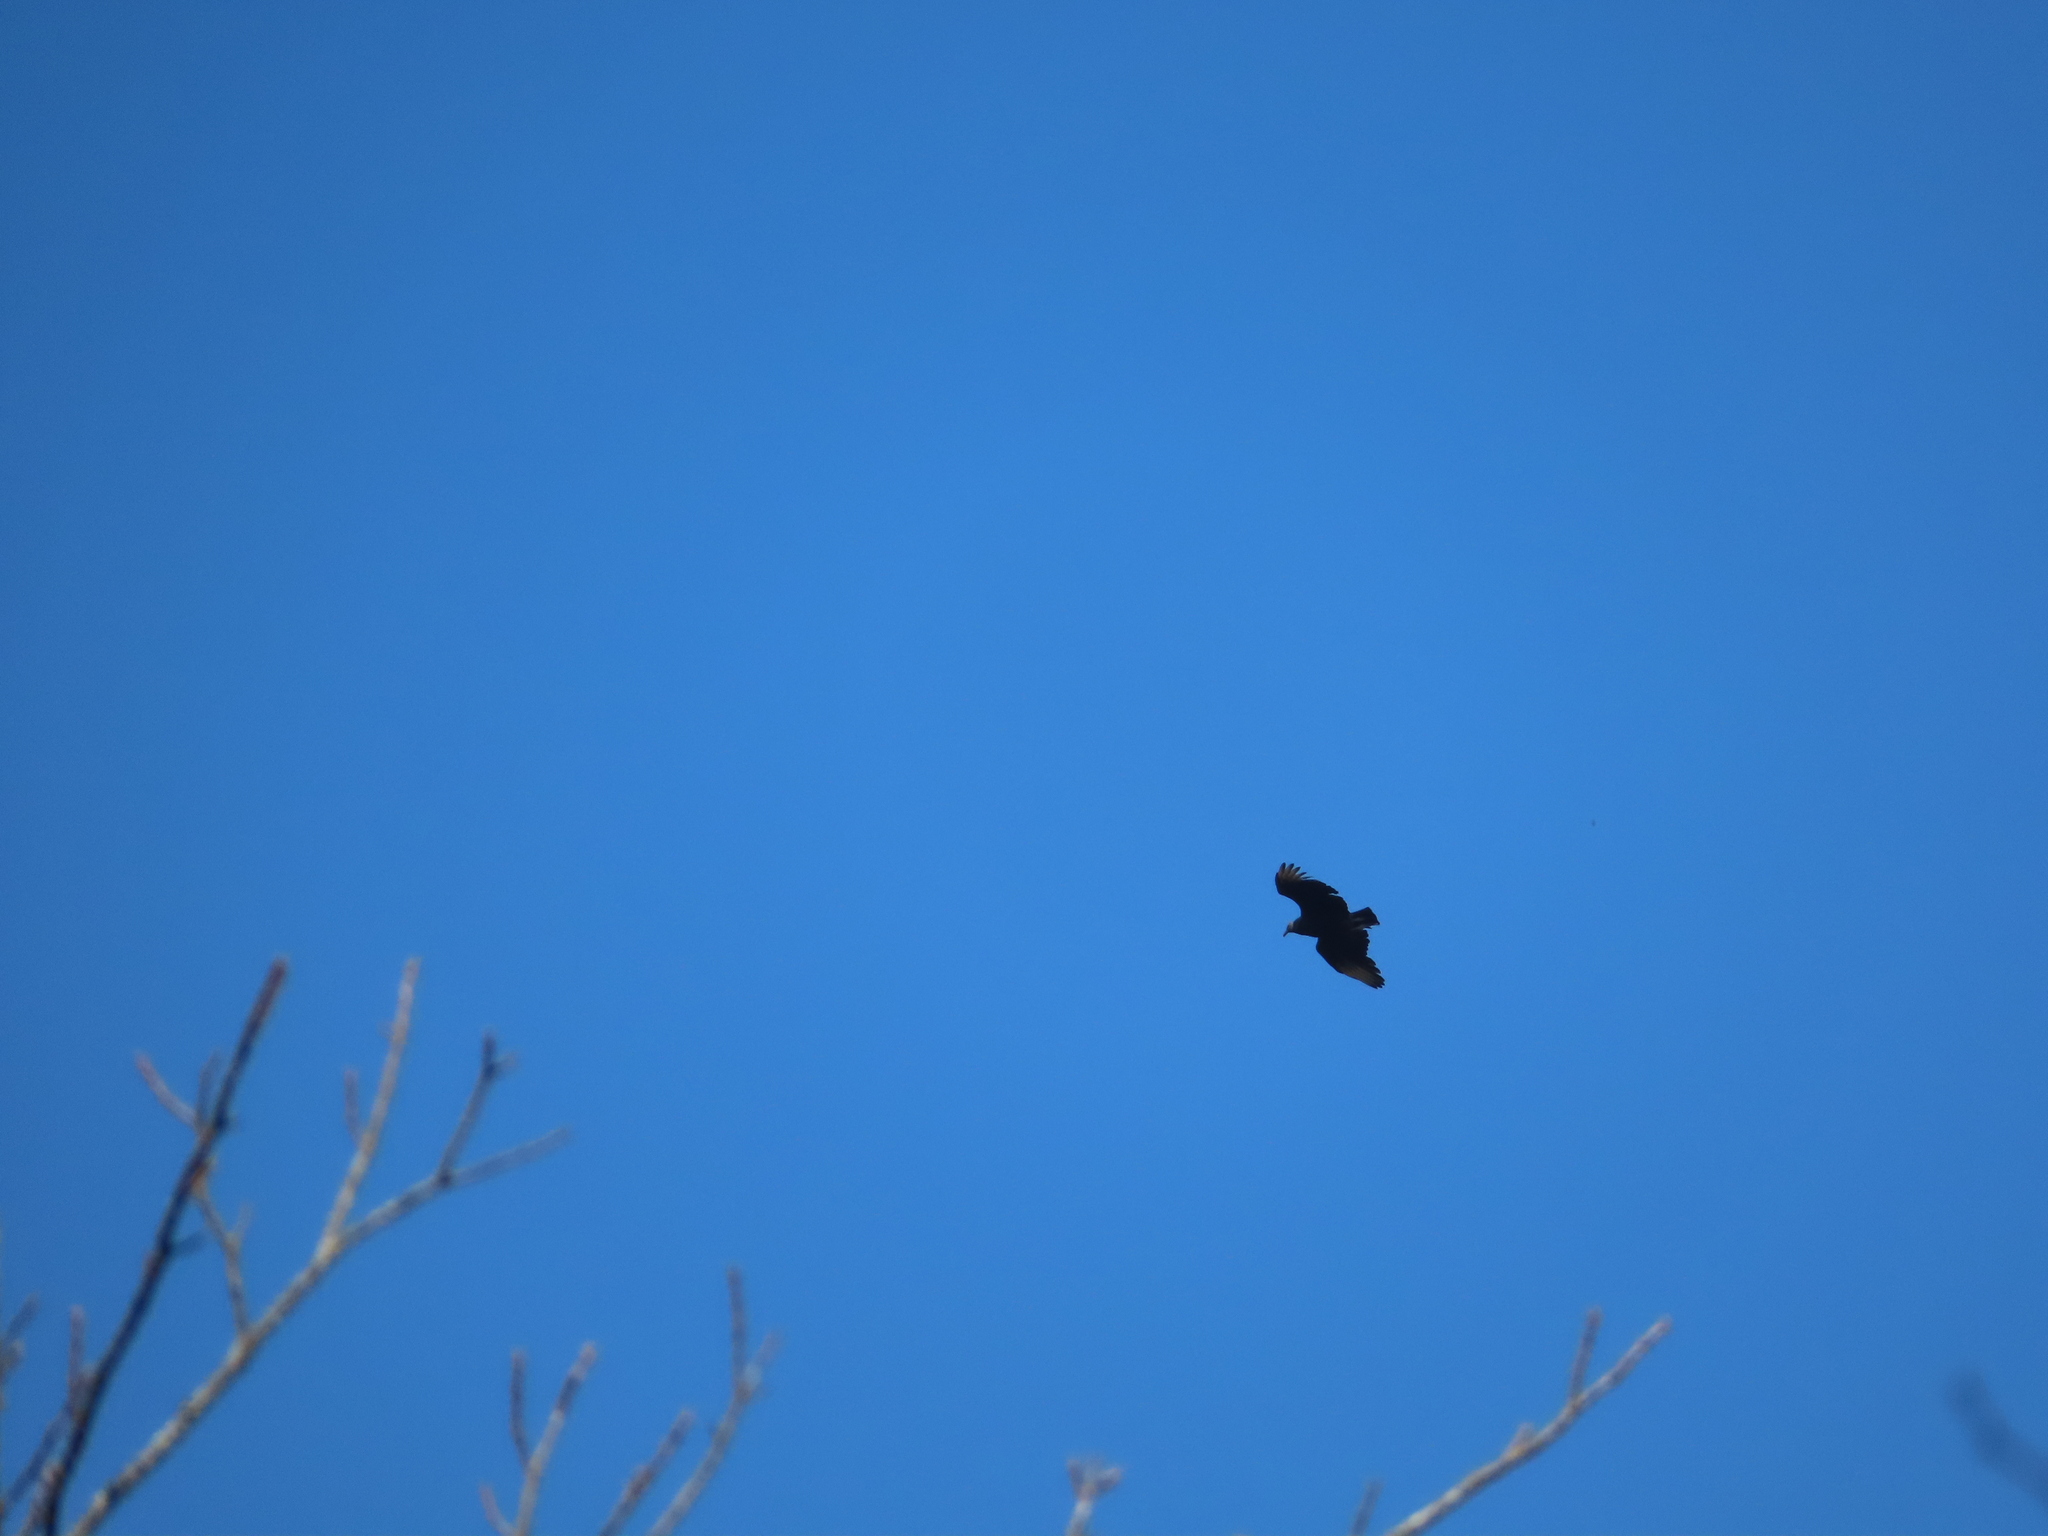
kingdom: Animalia
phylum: Chordata
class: Aves
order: Accipitriformes
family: Cathartidae
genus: Coragyps
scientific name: Coragyps atratus
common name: Black vulture
